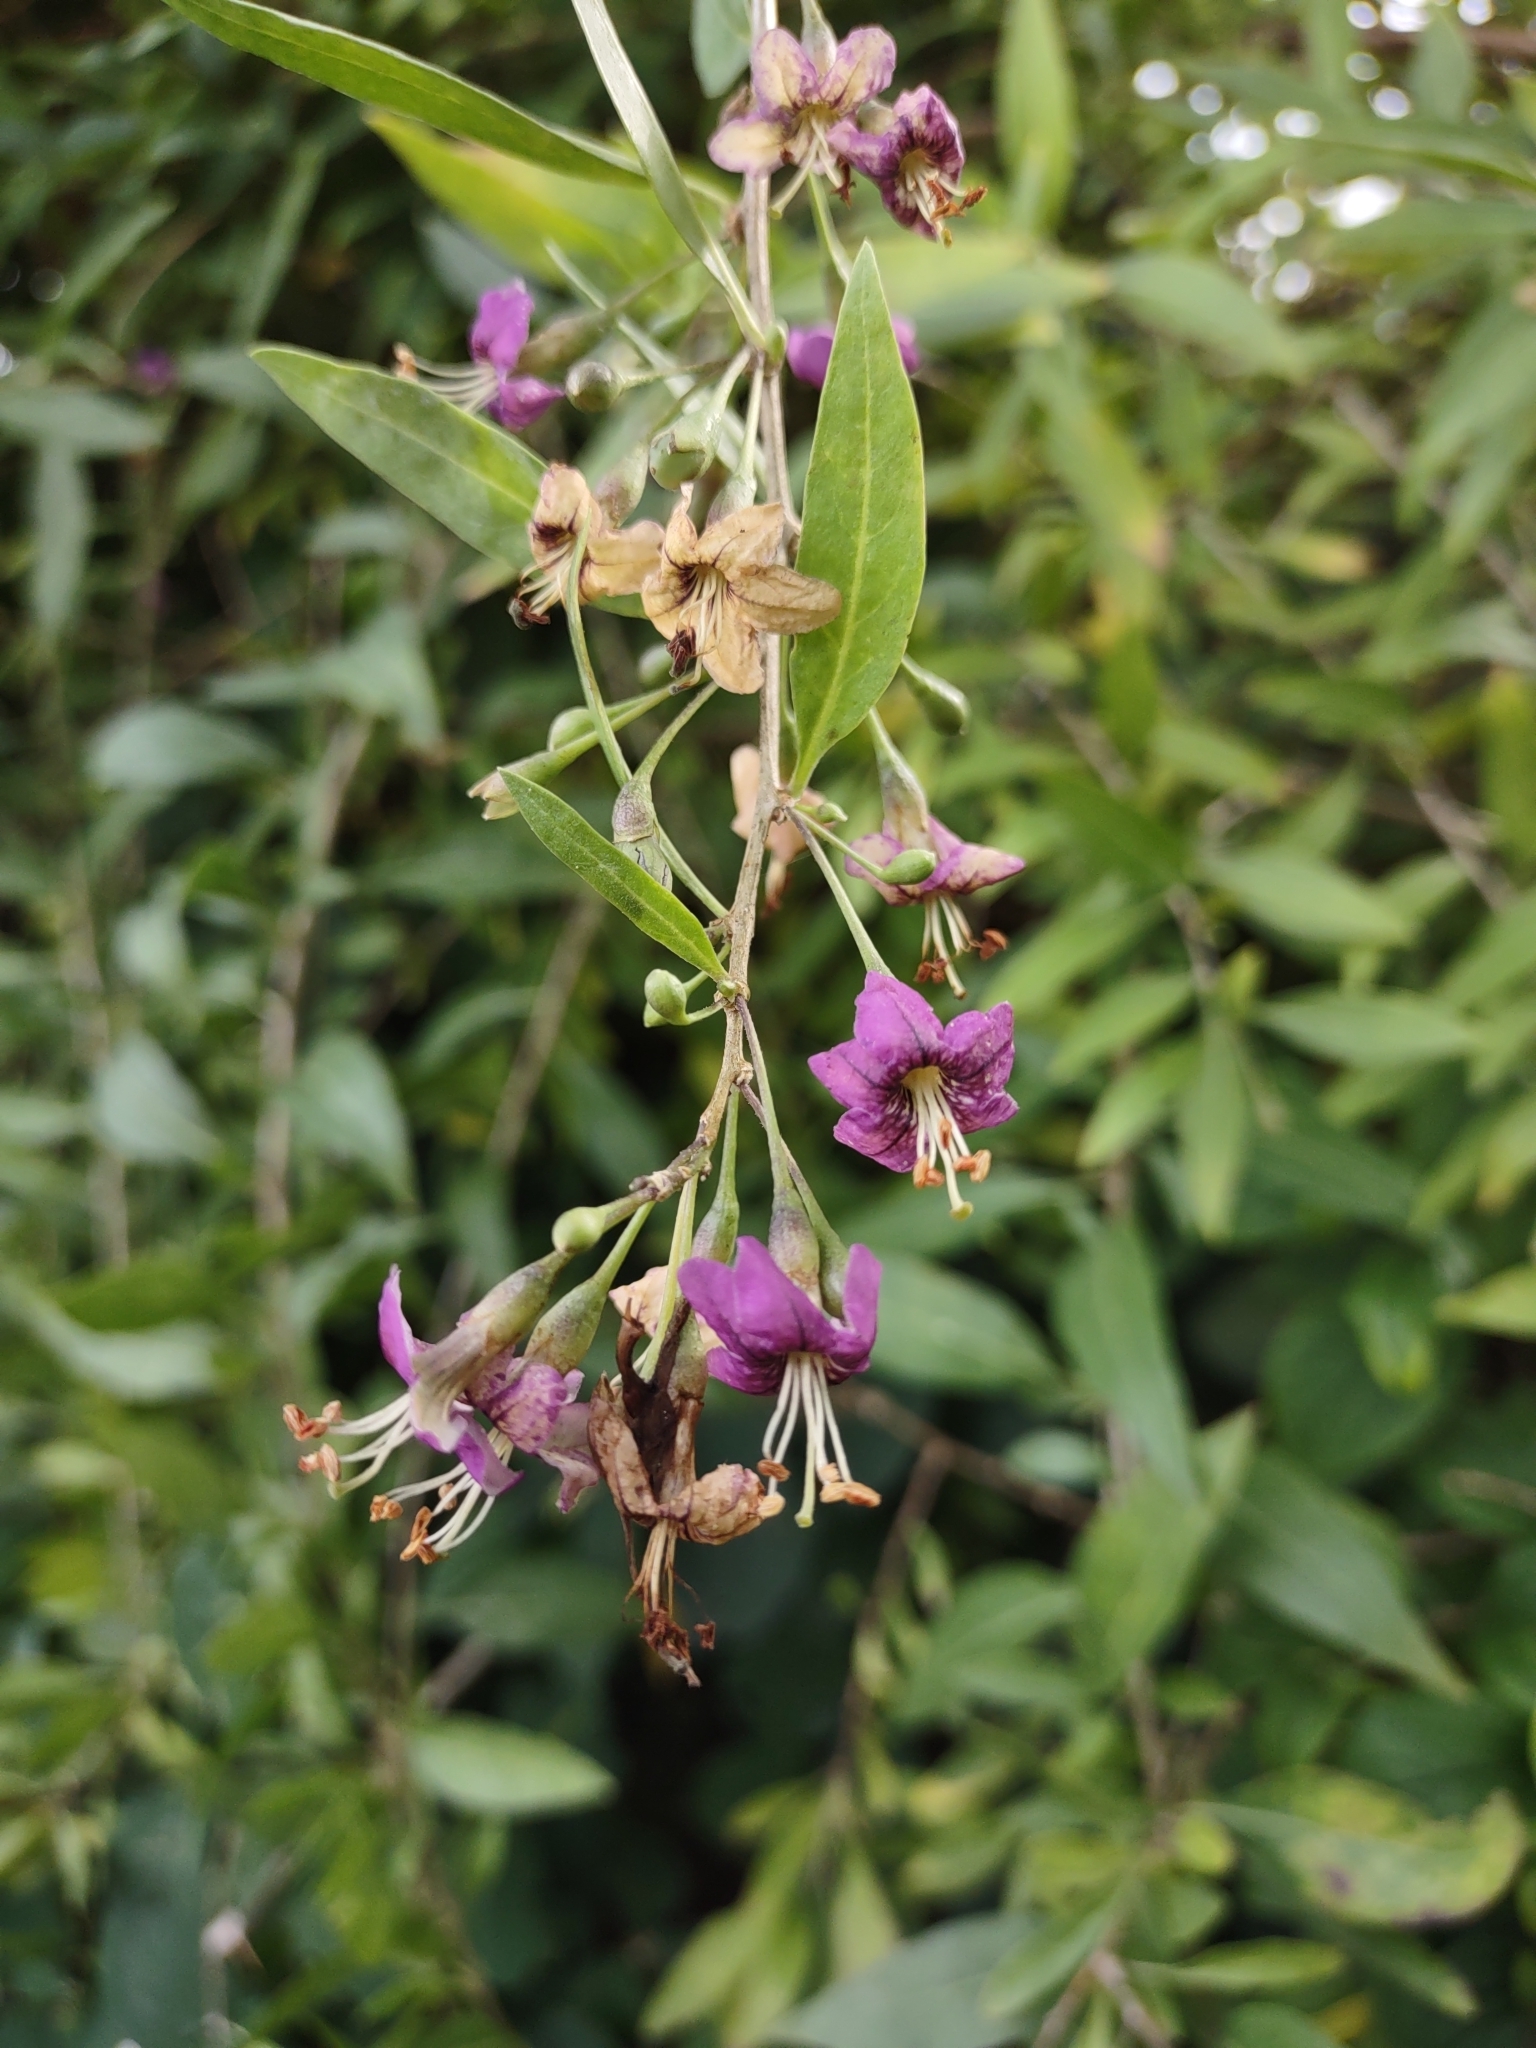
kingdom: Plantae
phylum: Tracheophyta
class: Magnoliopsida
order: Solanales
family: Solanaceae
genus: Lycium
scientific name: Lycium barbarum
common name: Duke of argyll's teaplant
